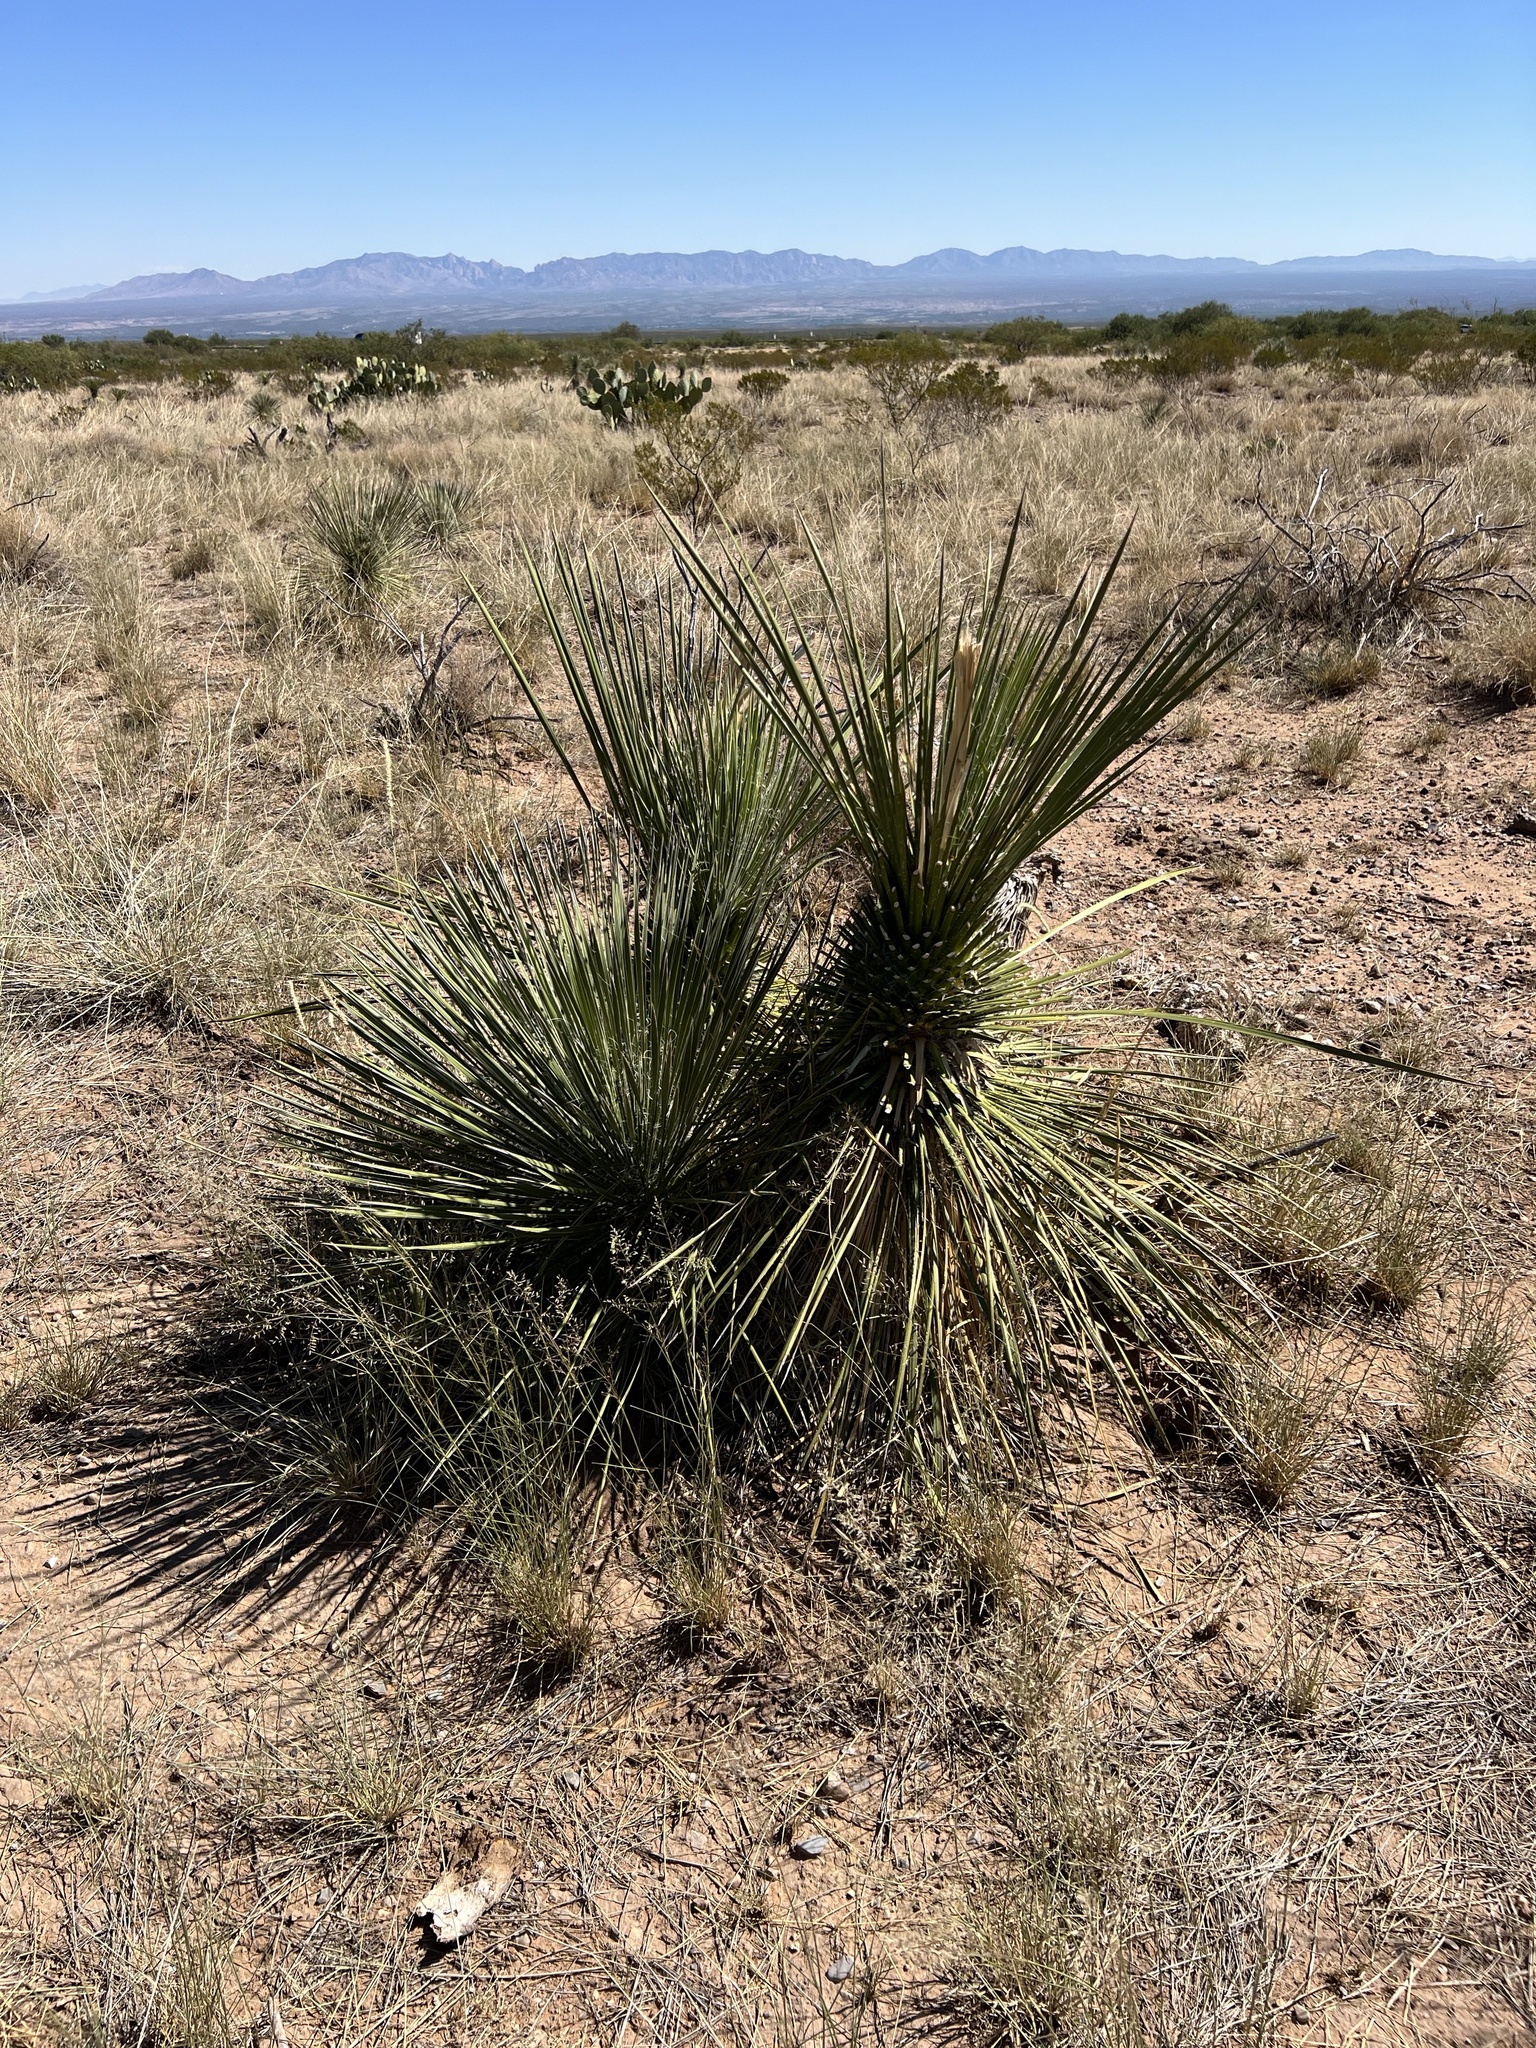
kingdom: Plantae
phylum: Tracheophyta
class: Liliopsida
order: Asparagales
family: Asparagaceae
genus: Yucca
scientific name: Yucca elata
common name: Palmella
